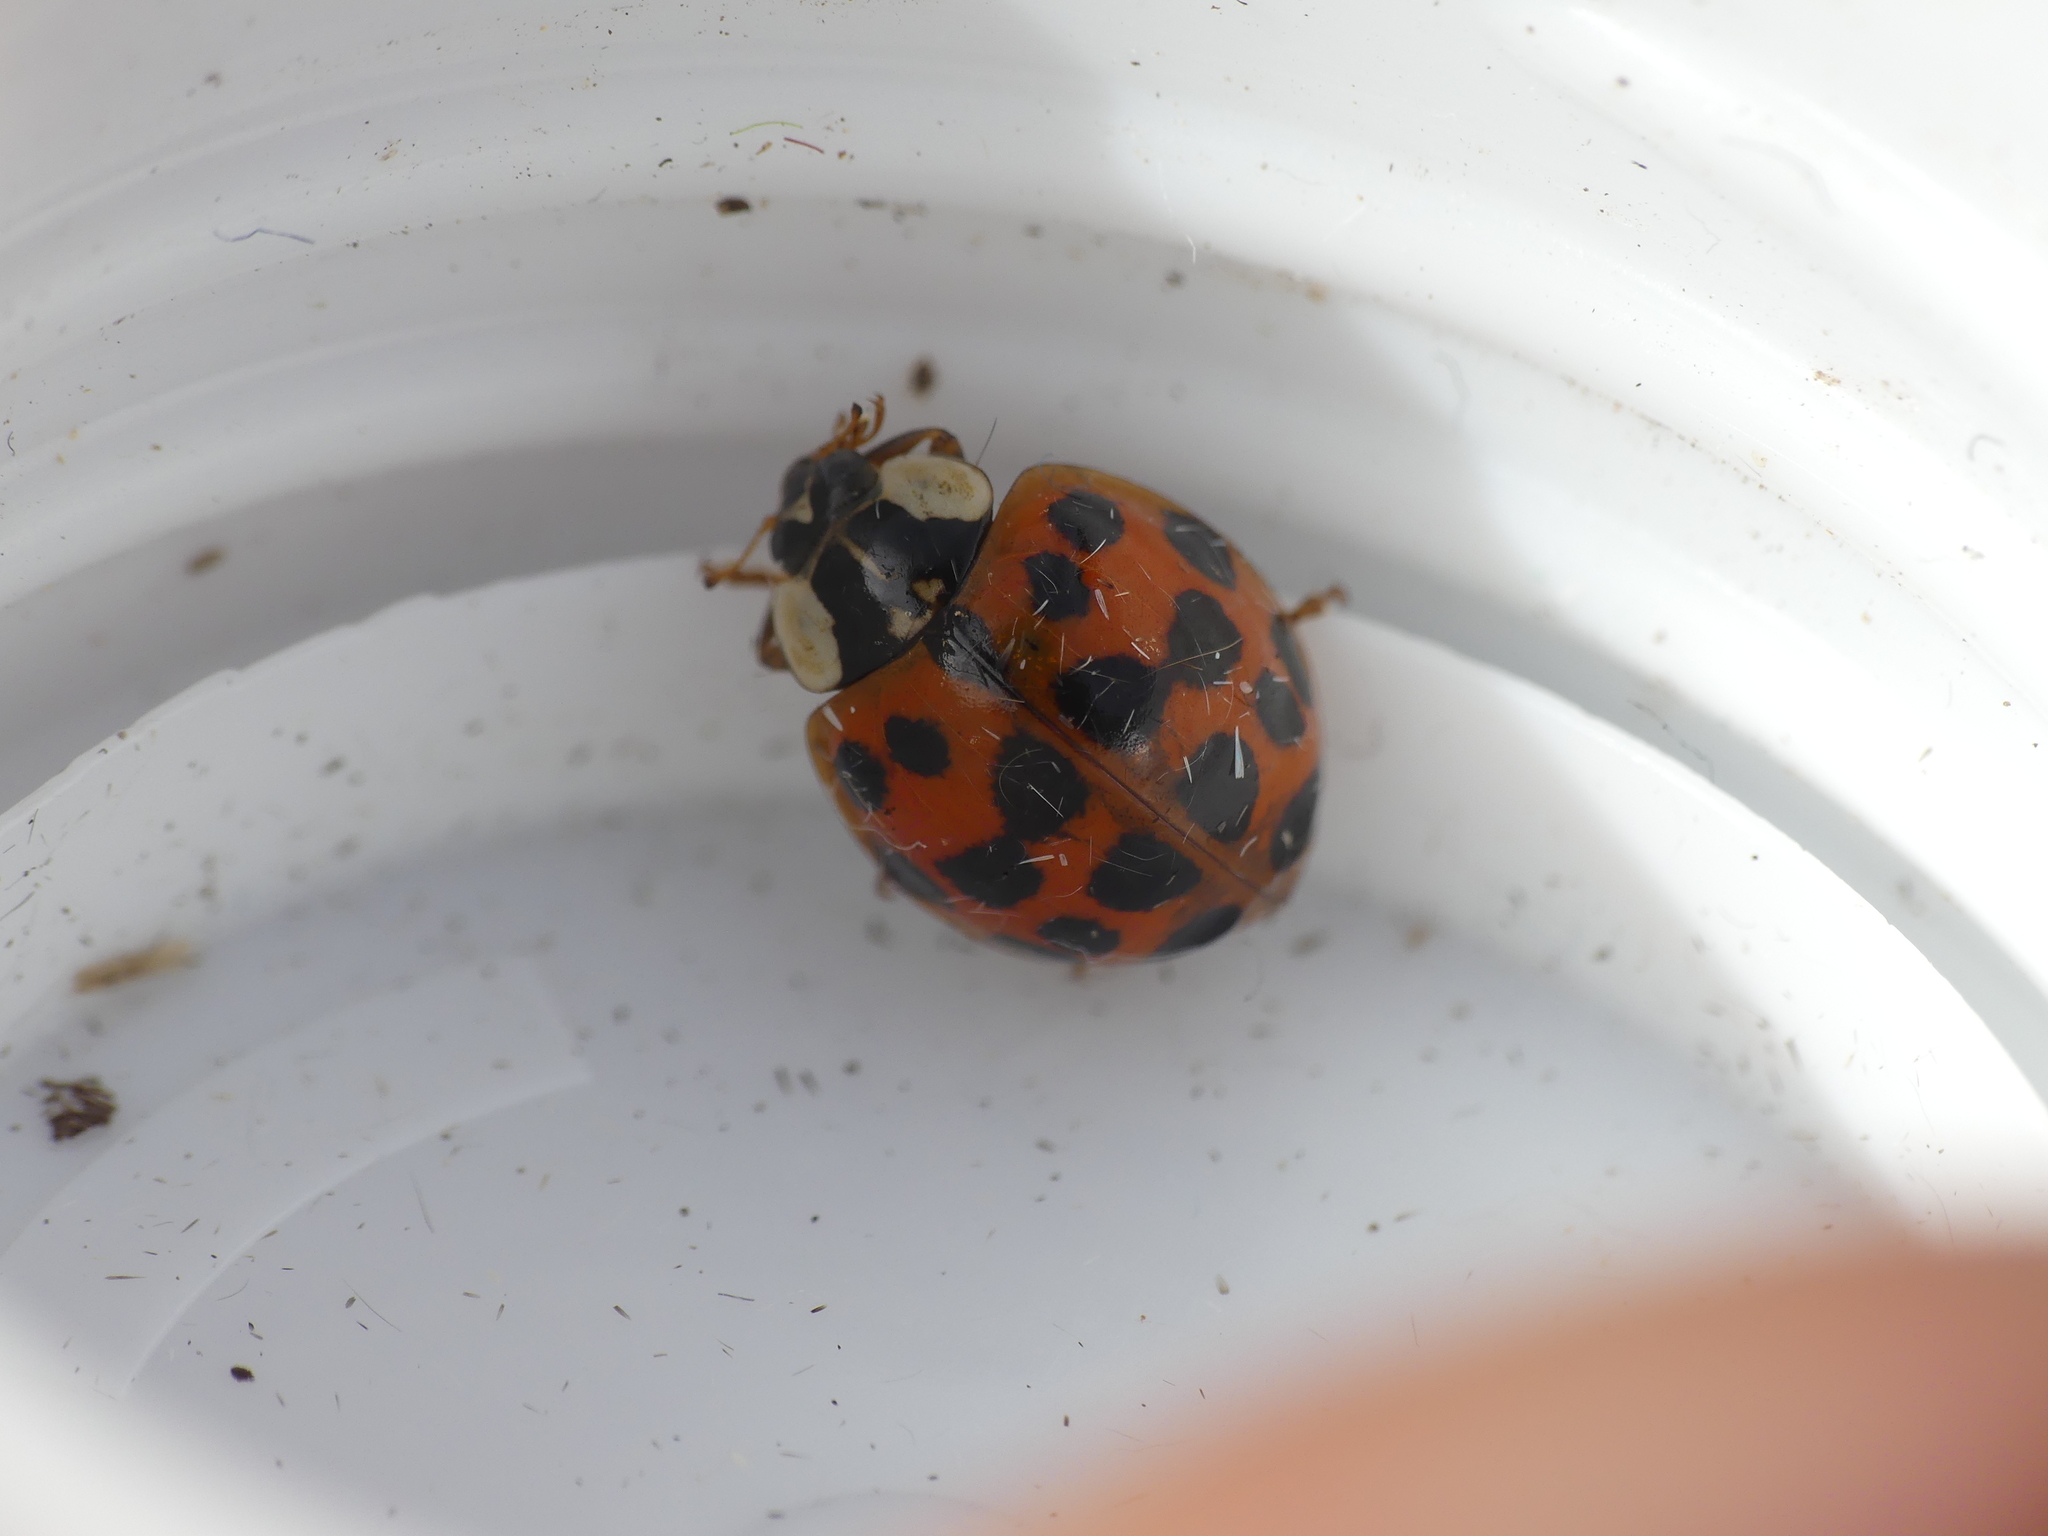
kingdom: Animalia
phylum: Arthropoda
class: Insecta
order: Coleoptera
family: Coccinellidae
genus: Harmonia
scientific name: Harmonia axyridis
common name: Harlequin ladybird
